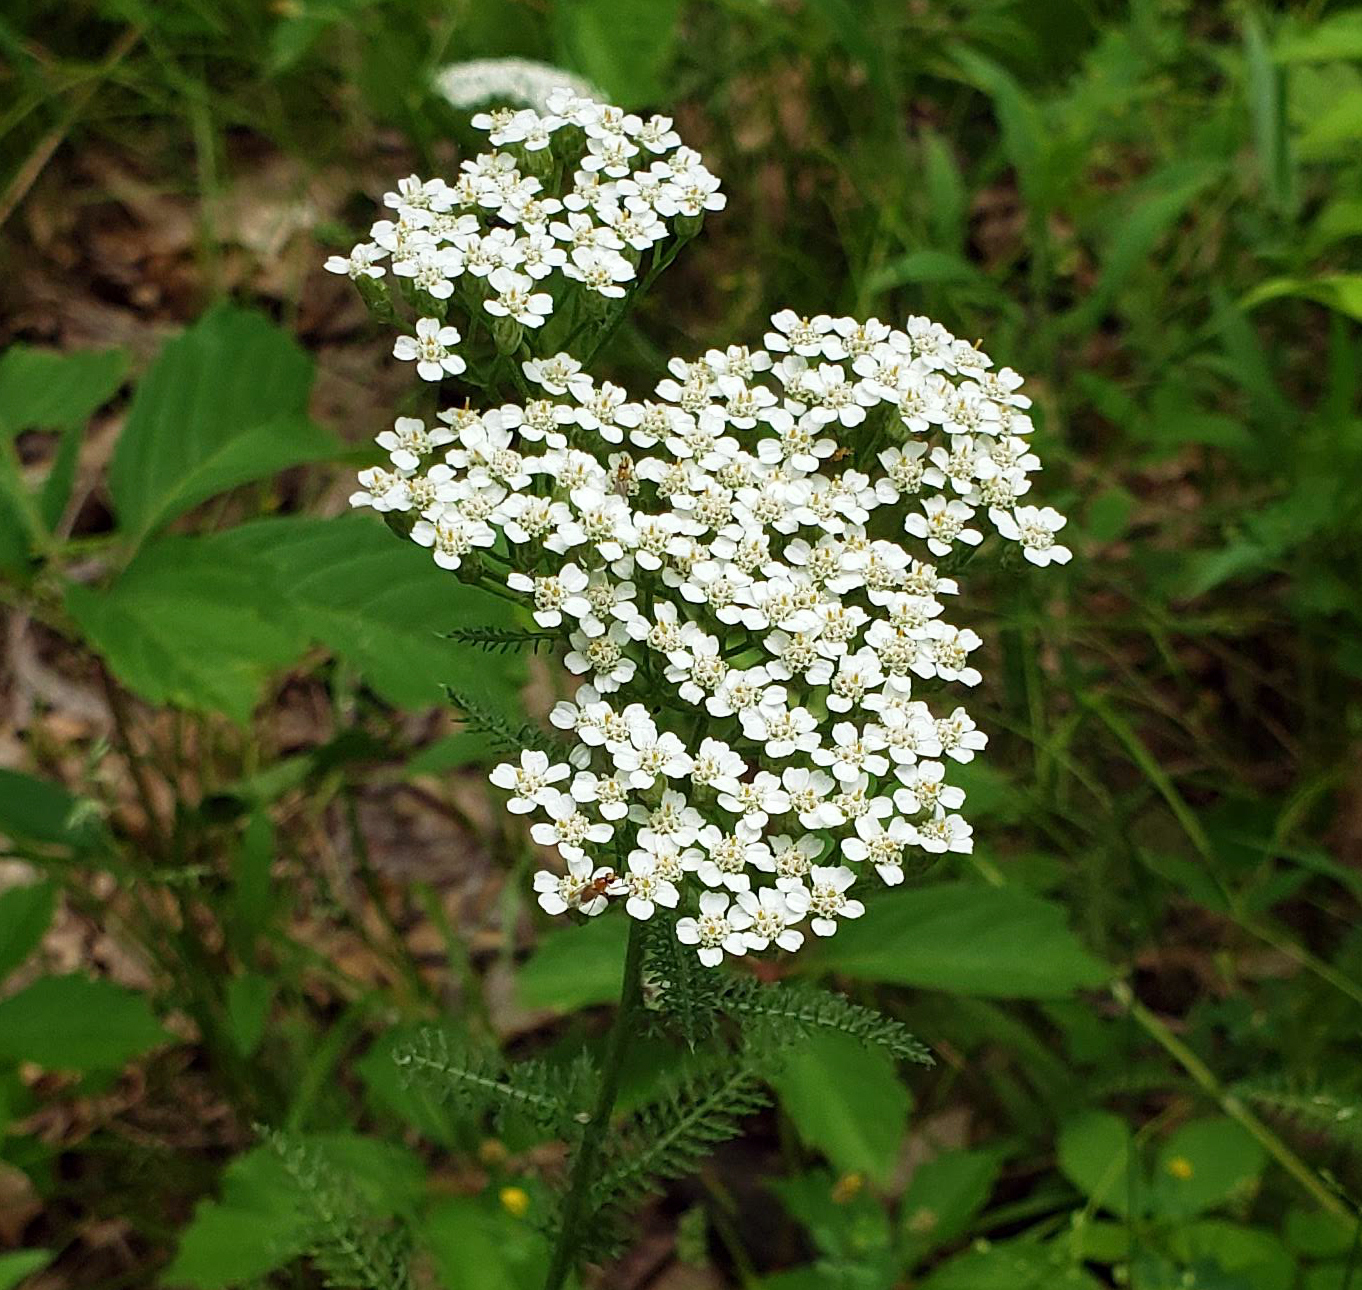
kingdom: Plantae
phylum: Tracheophyta
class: Magnoliopsida
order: Asterales
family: Asteraceae
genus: Achillea
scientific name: Achillea millefolium
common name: Yarrow
